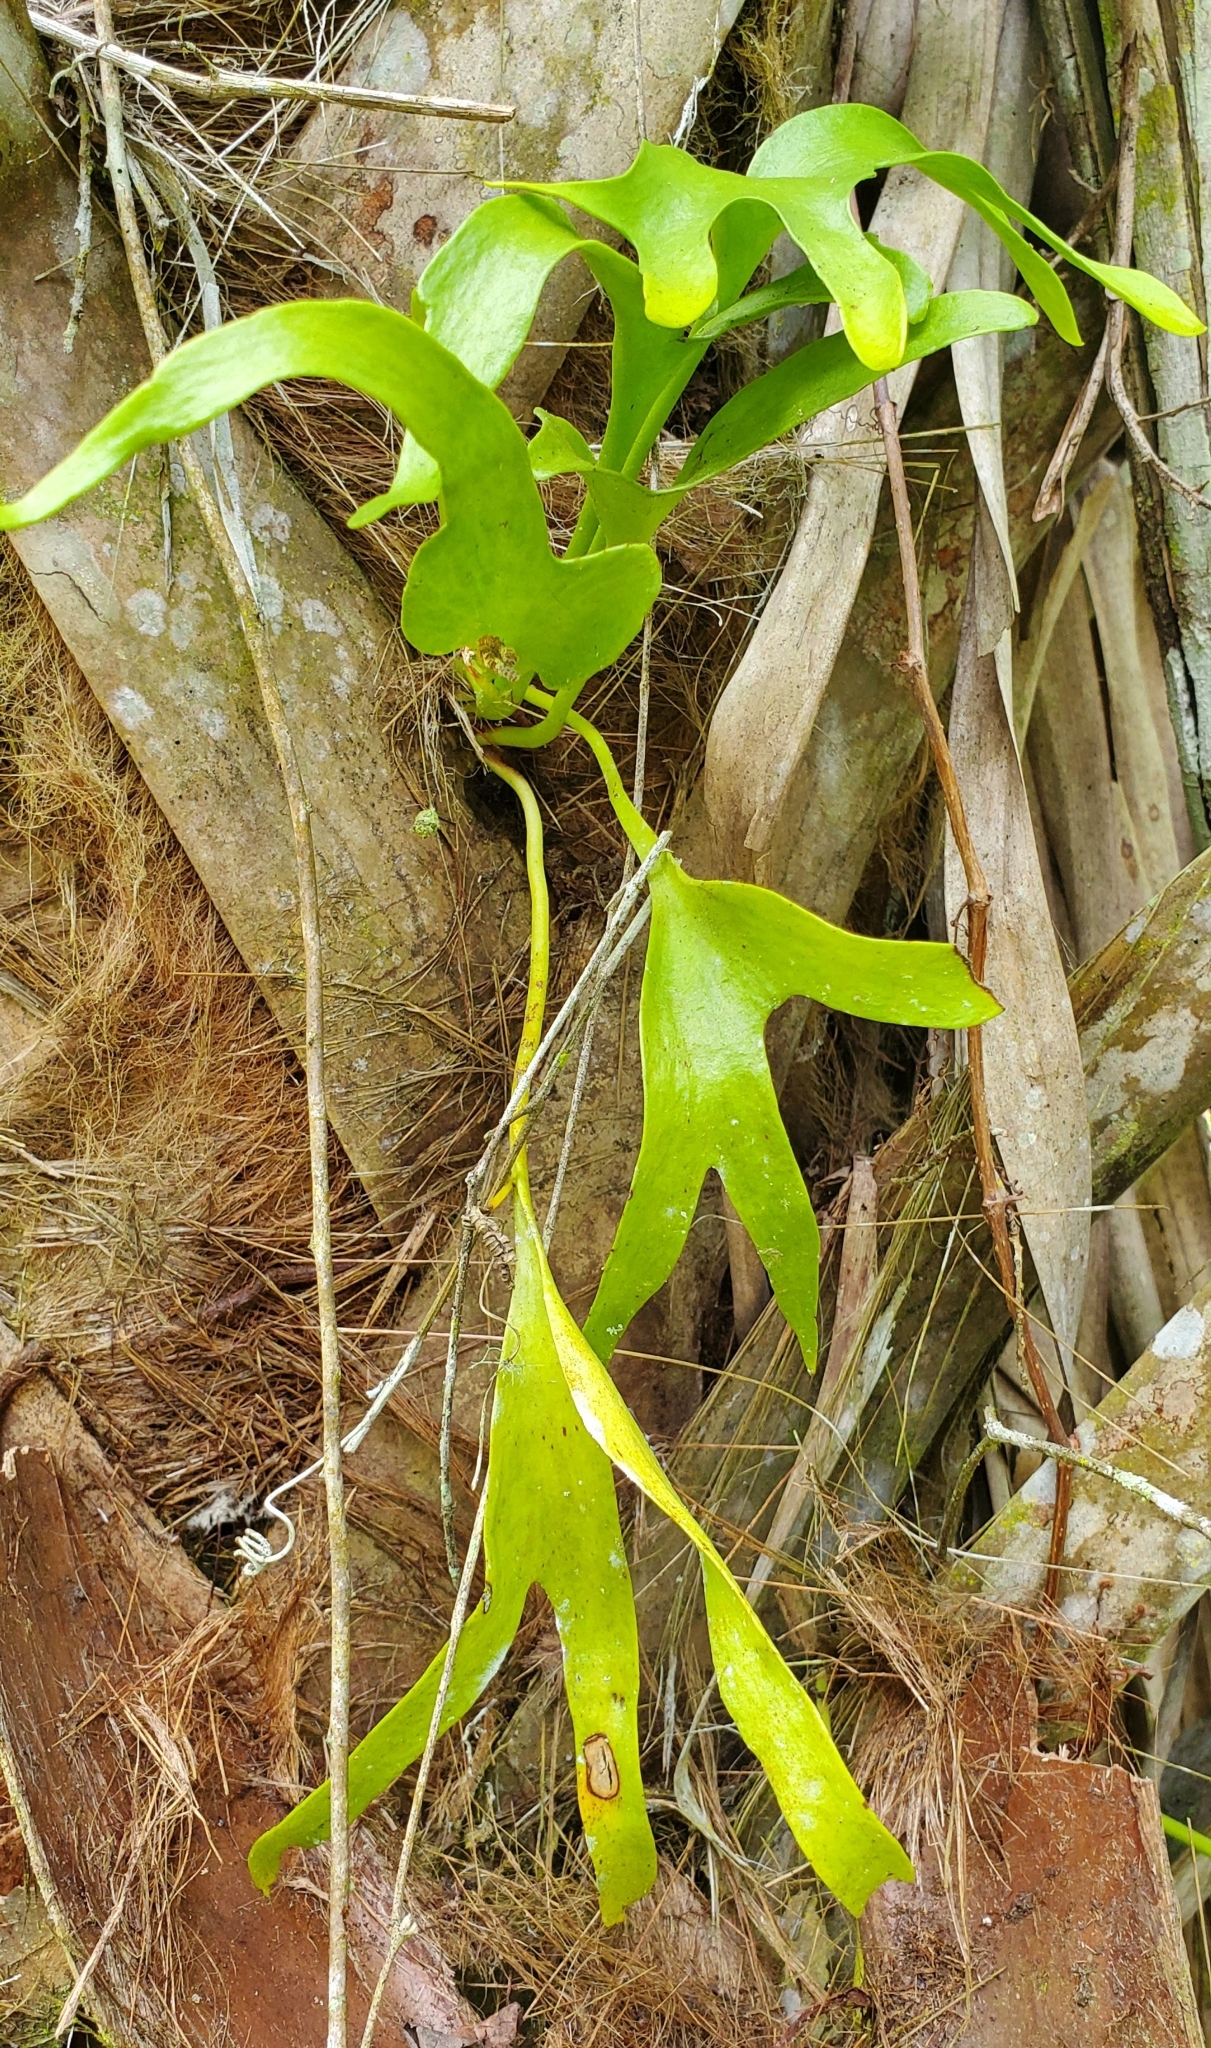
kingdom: Plantae
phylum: Tracheophyta
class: Polypodiopsida
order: Ophioglossales
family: Ophioglossaceae
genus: Cheiroglossa
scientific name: Cheiroglossa palmata
